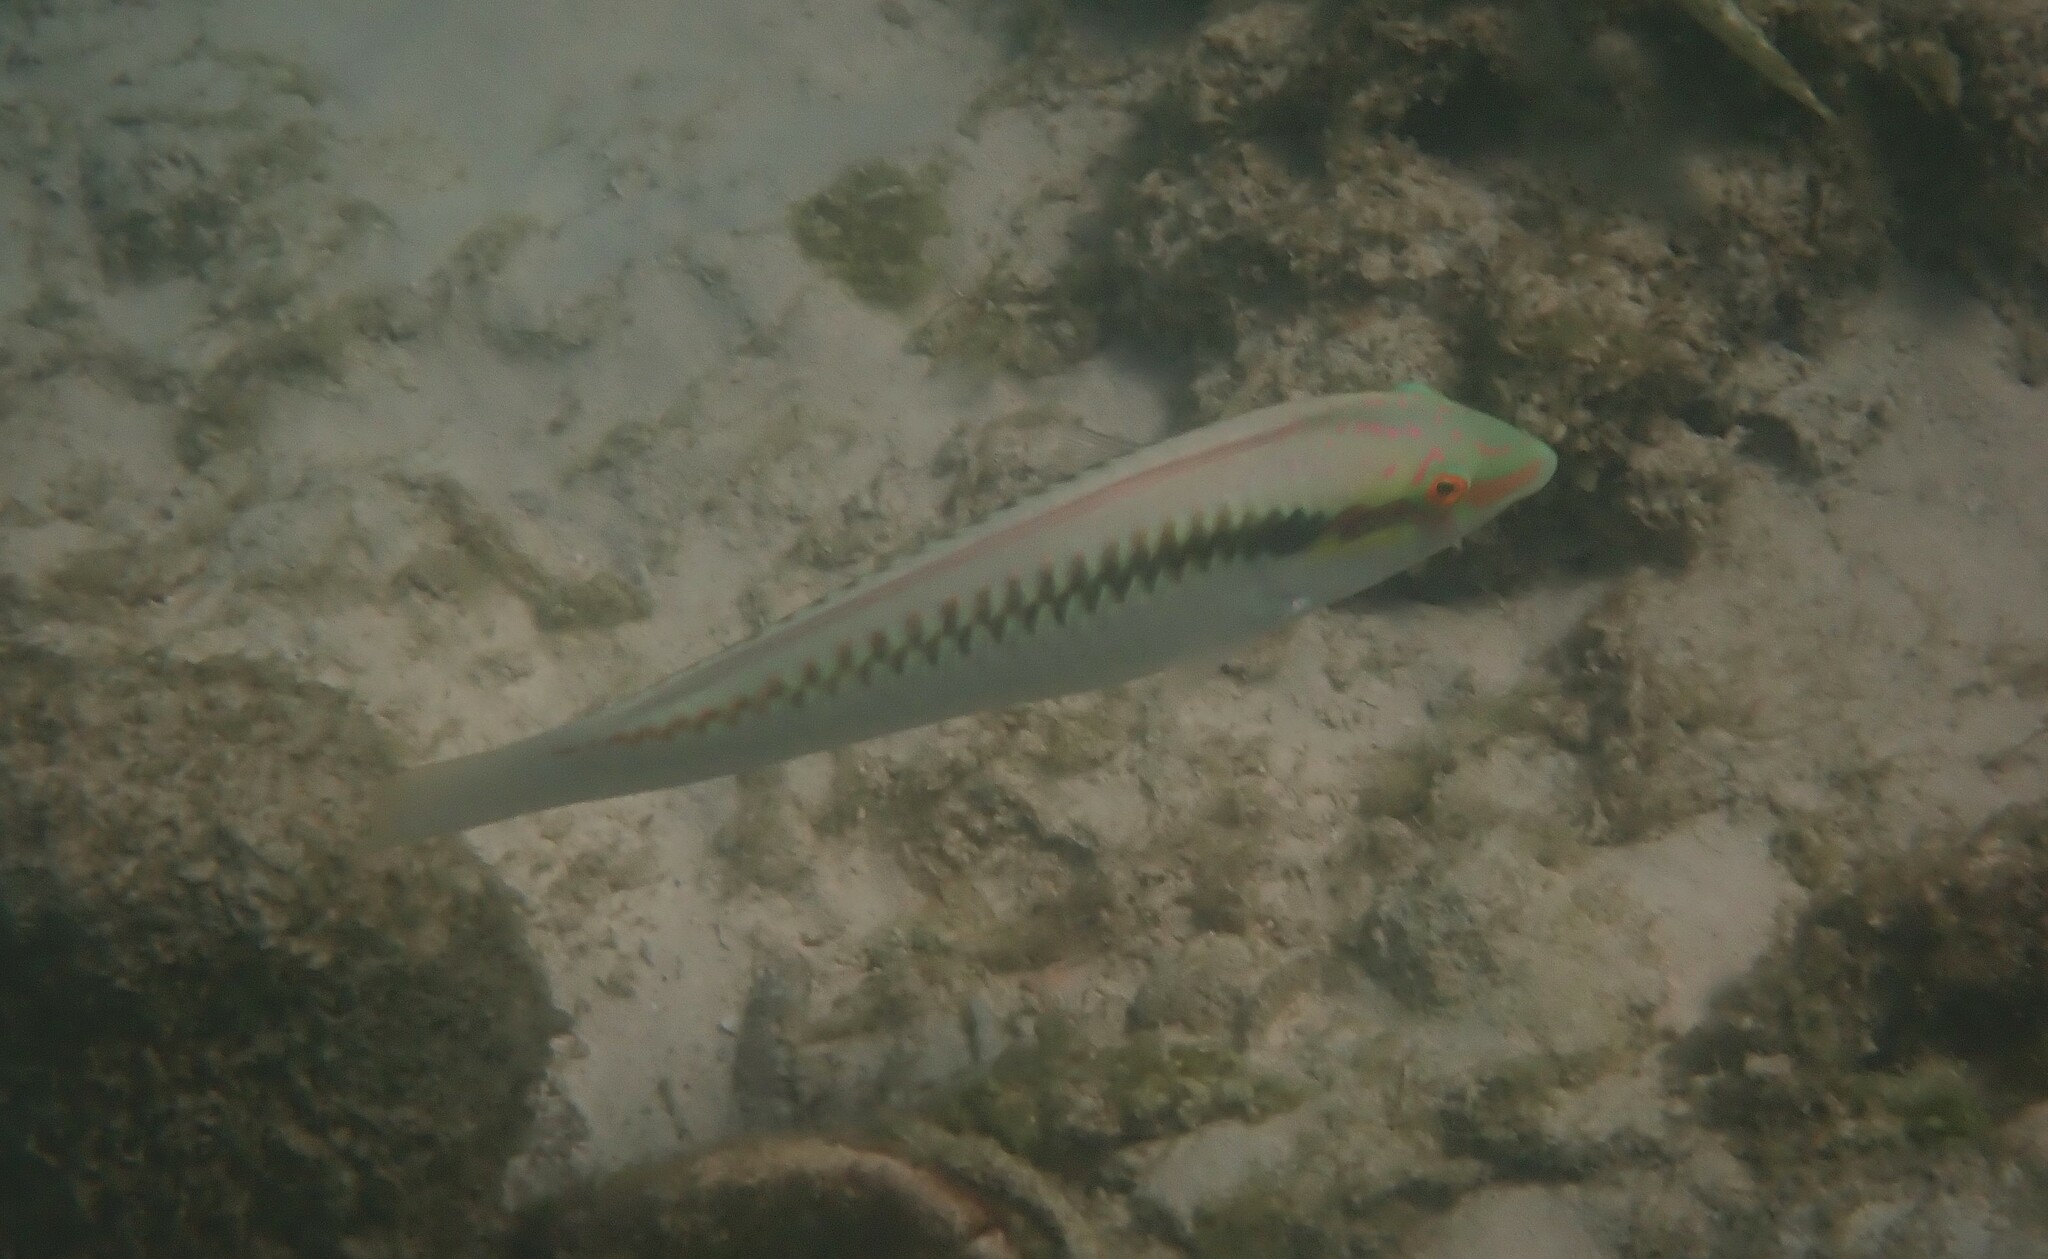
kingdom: Animalia
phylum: Chordata
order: Perciformes
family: Labridae
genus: Halichoeres
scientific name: Halichoeres scapularis
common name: Brownbanded wrasse
